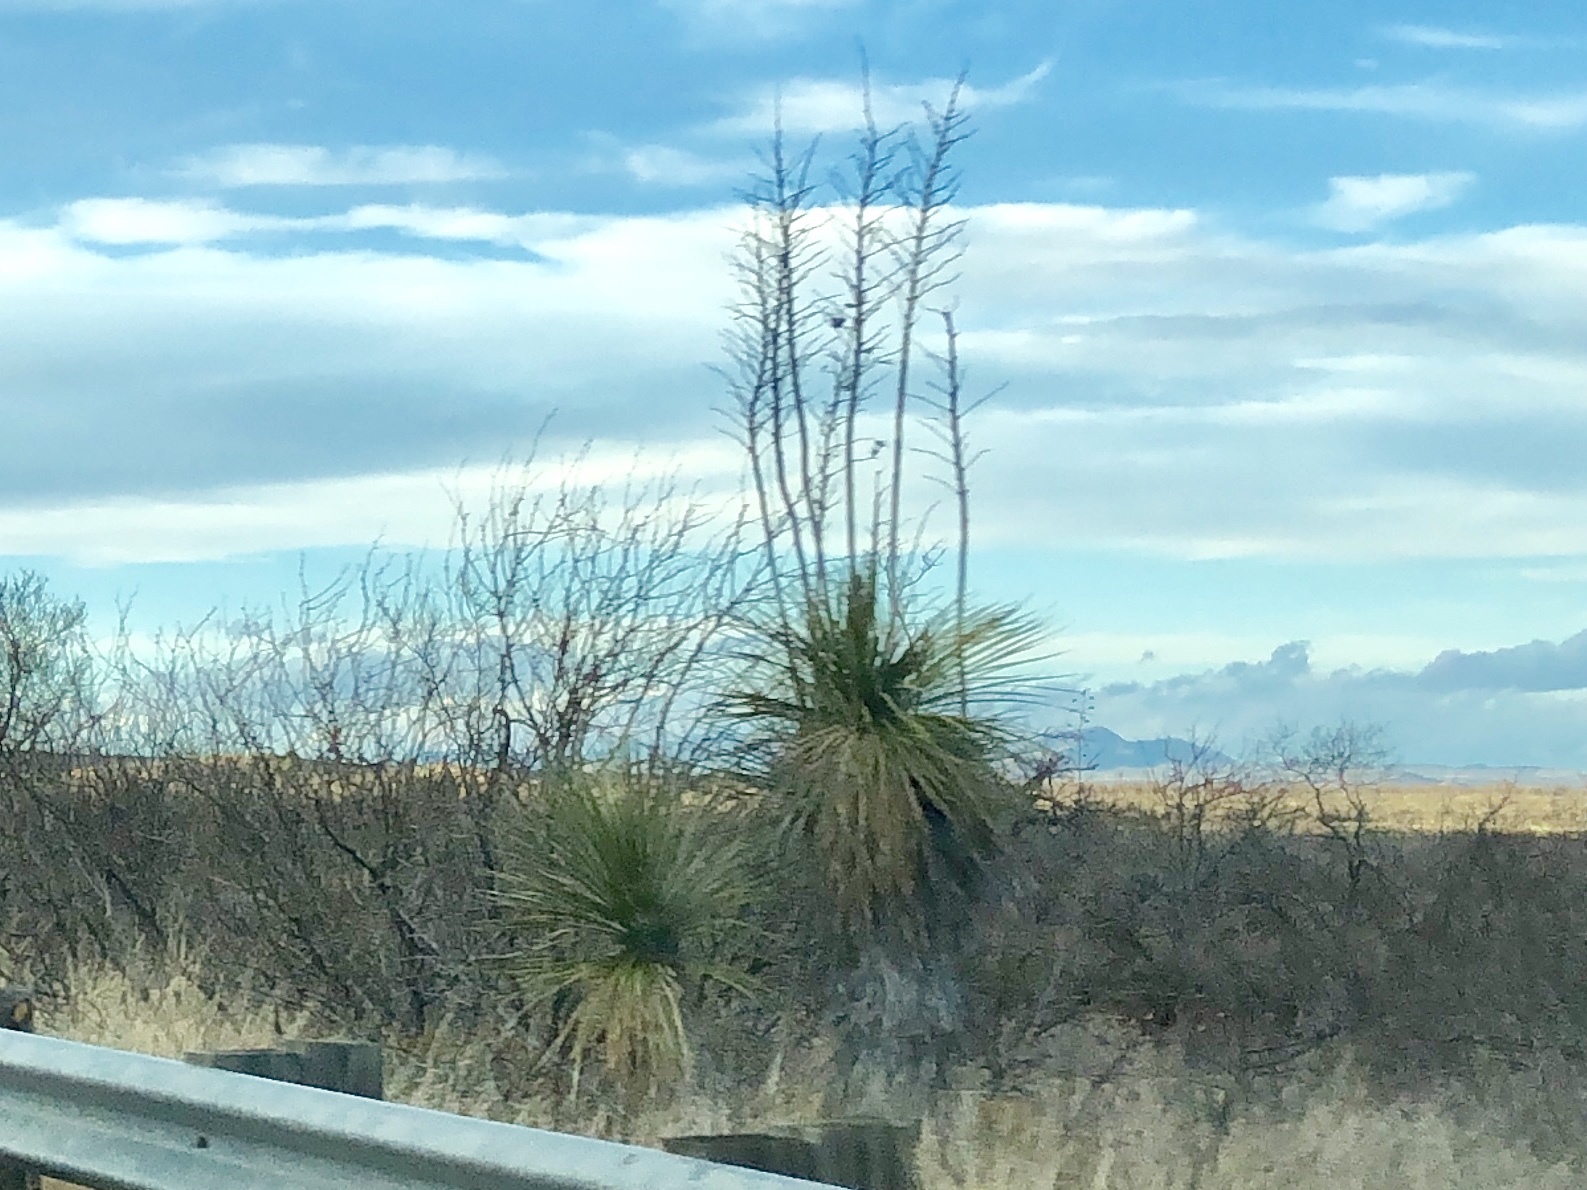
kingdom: Plantae
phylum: Tracheophyta
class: Liliopsida
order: Asparagales
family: Asparagaceae
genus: Yucca
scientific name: Yucca elata
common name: Palmella
